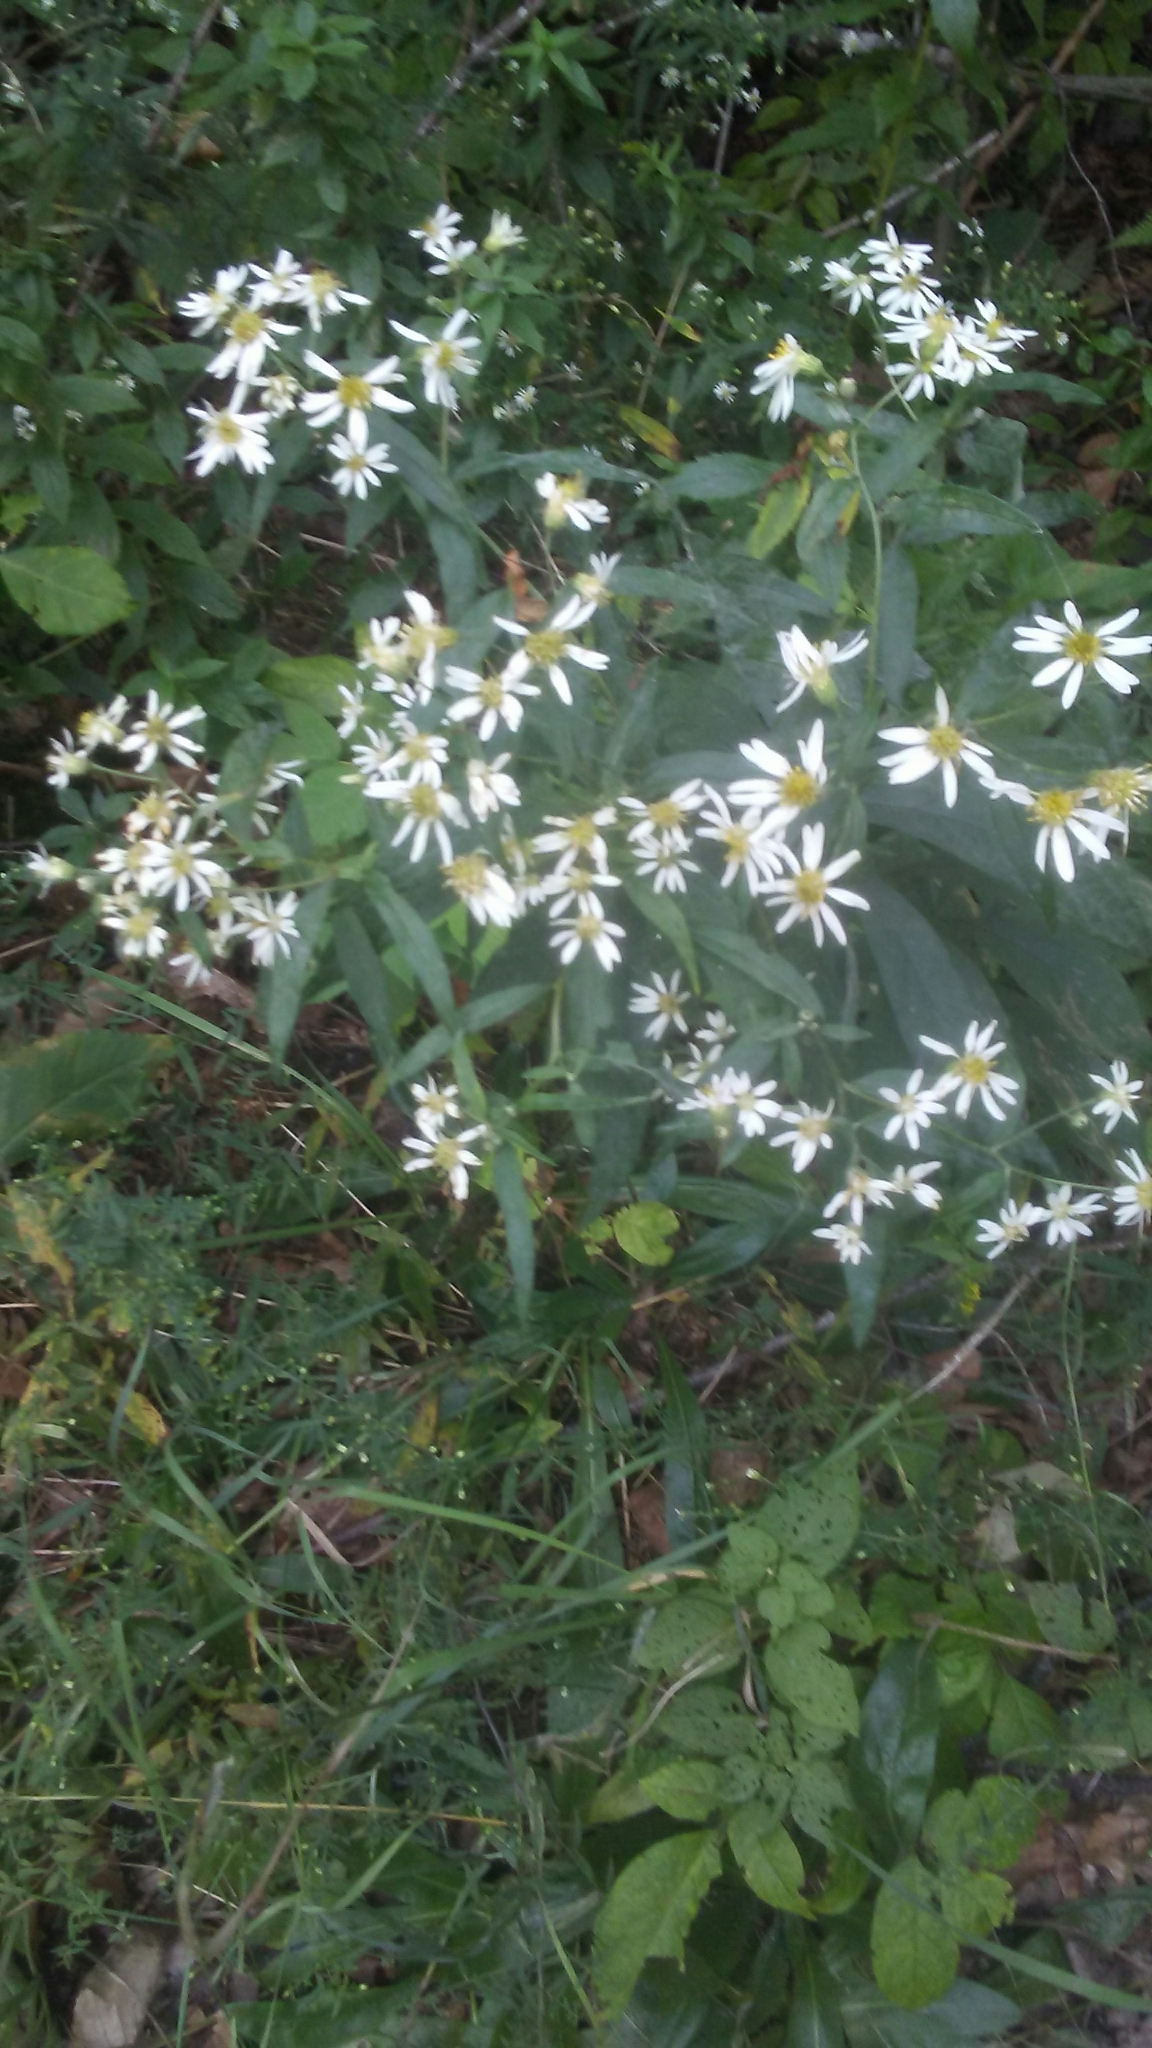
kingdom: Plantae
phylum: Tracheophyta
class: Magnoliopsida
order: Asterales
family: Asteraceae
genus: Doellingeria
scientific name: Doellingeria umbellata
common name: Flat-top white aster
